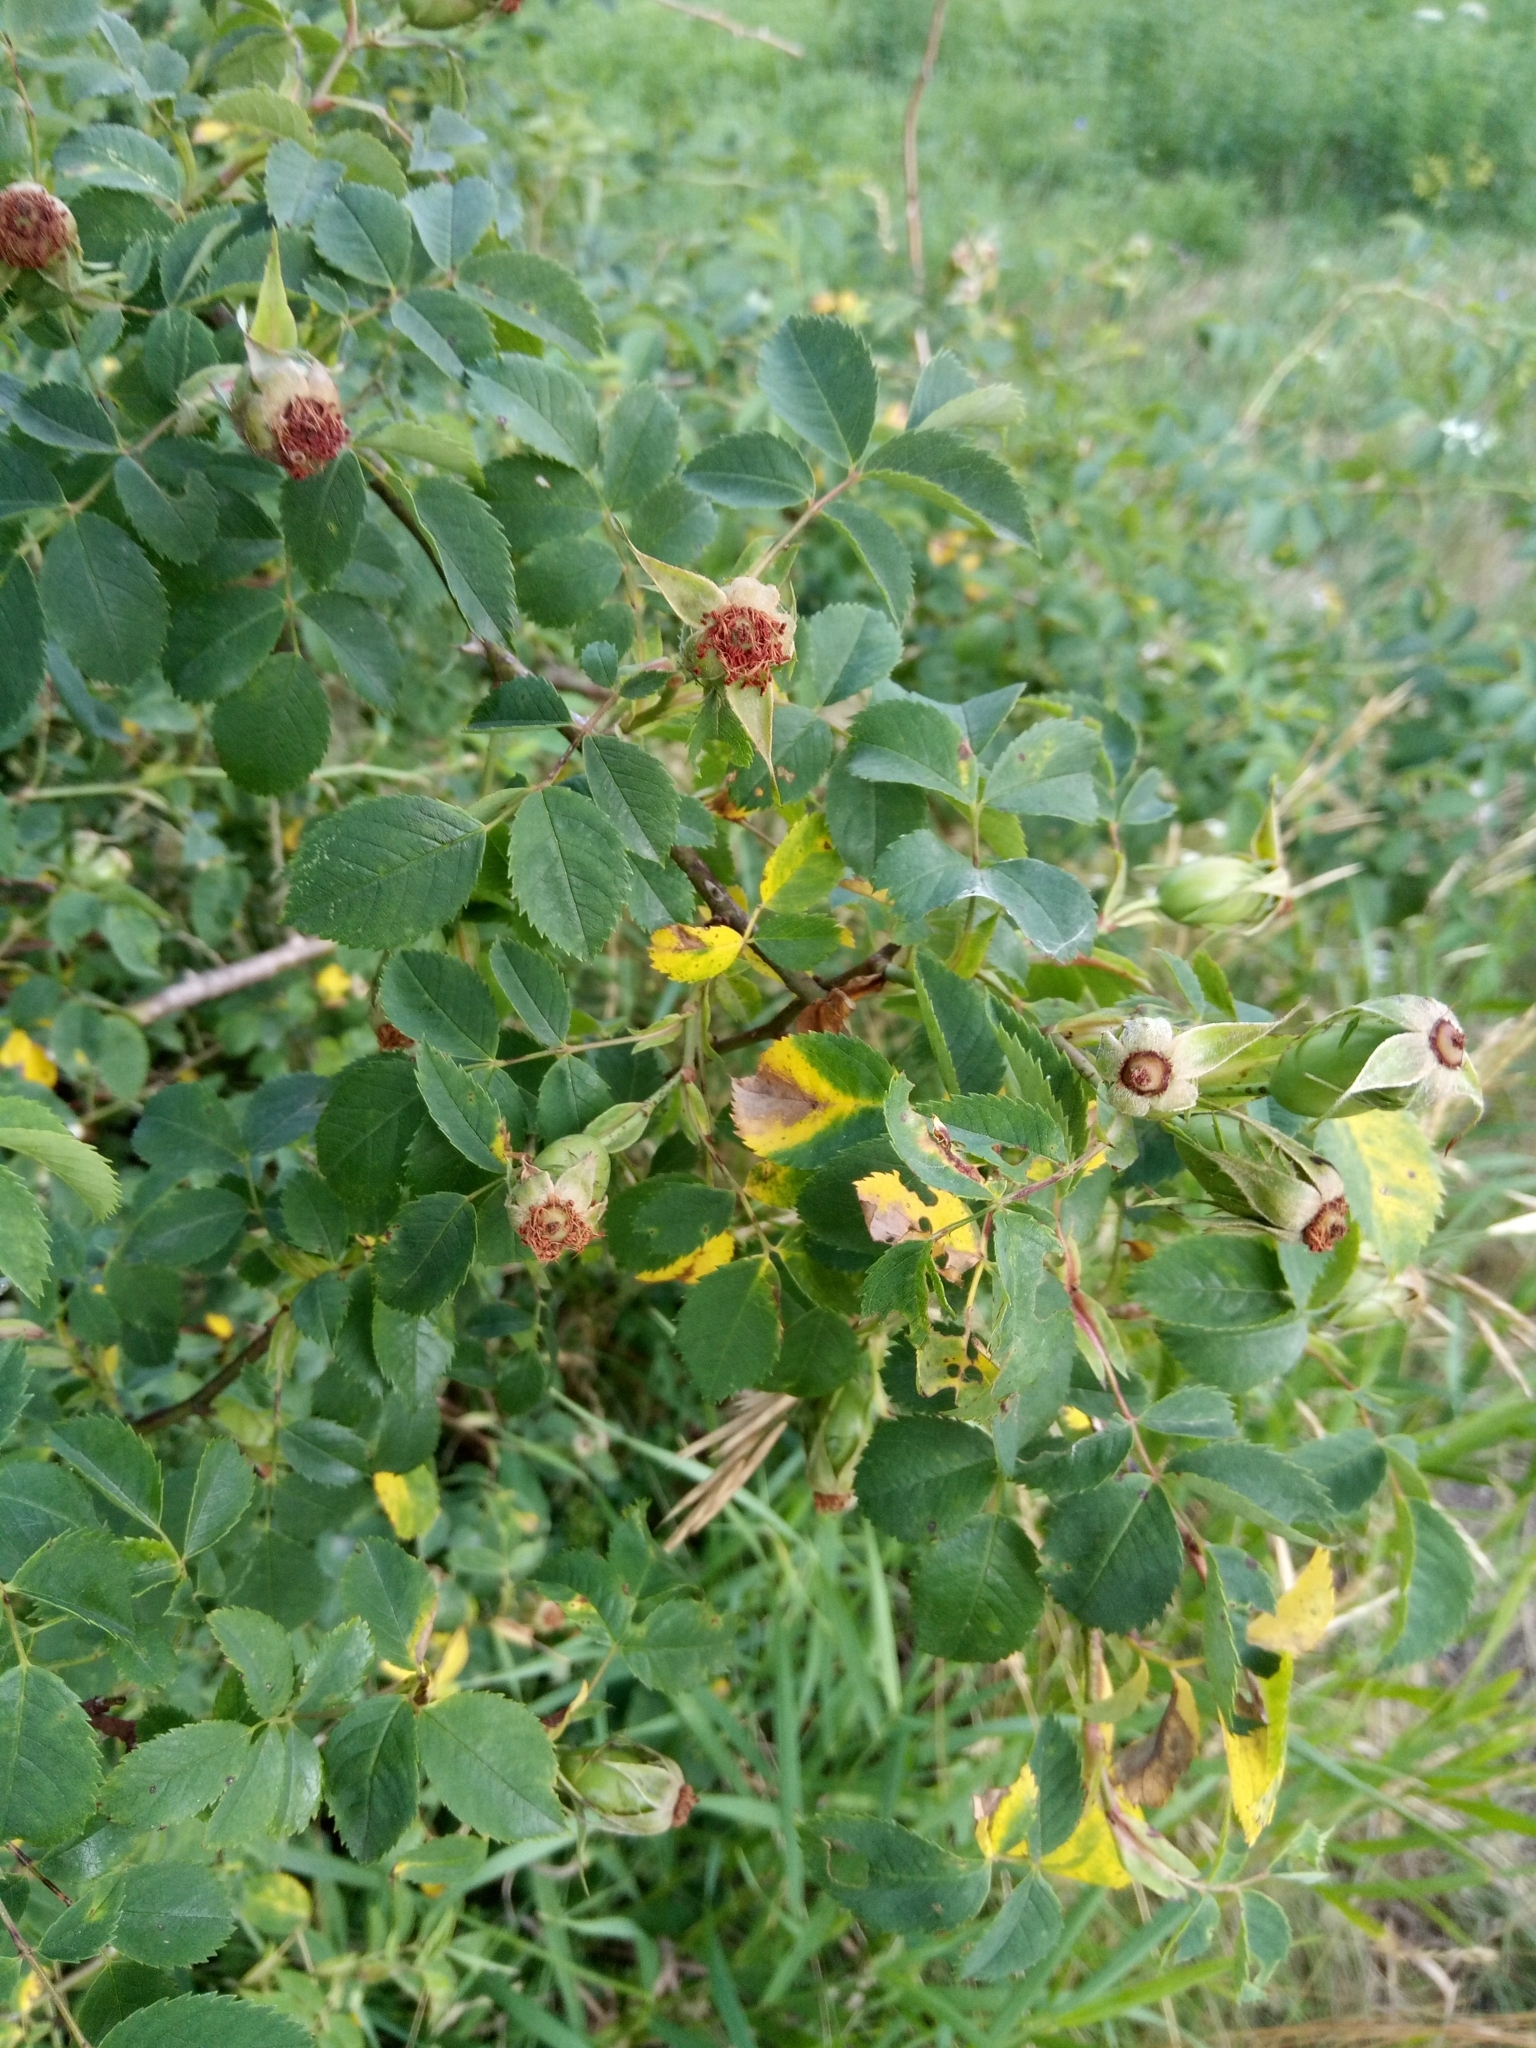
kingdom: Animalia
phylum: Arthropoda
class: Insecta
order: Hymenoptera
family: Cynipidae
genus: Diplolepis
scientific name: Diplolepis rosae
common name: Bedeguar gall
